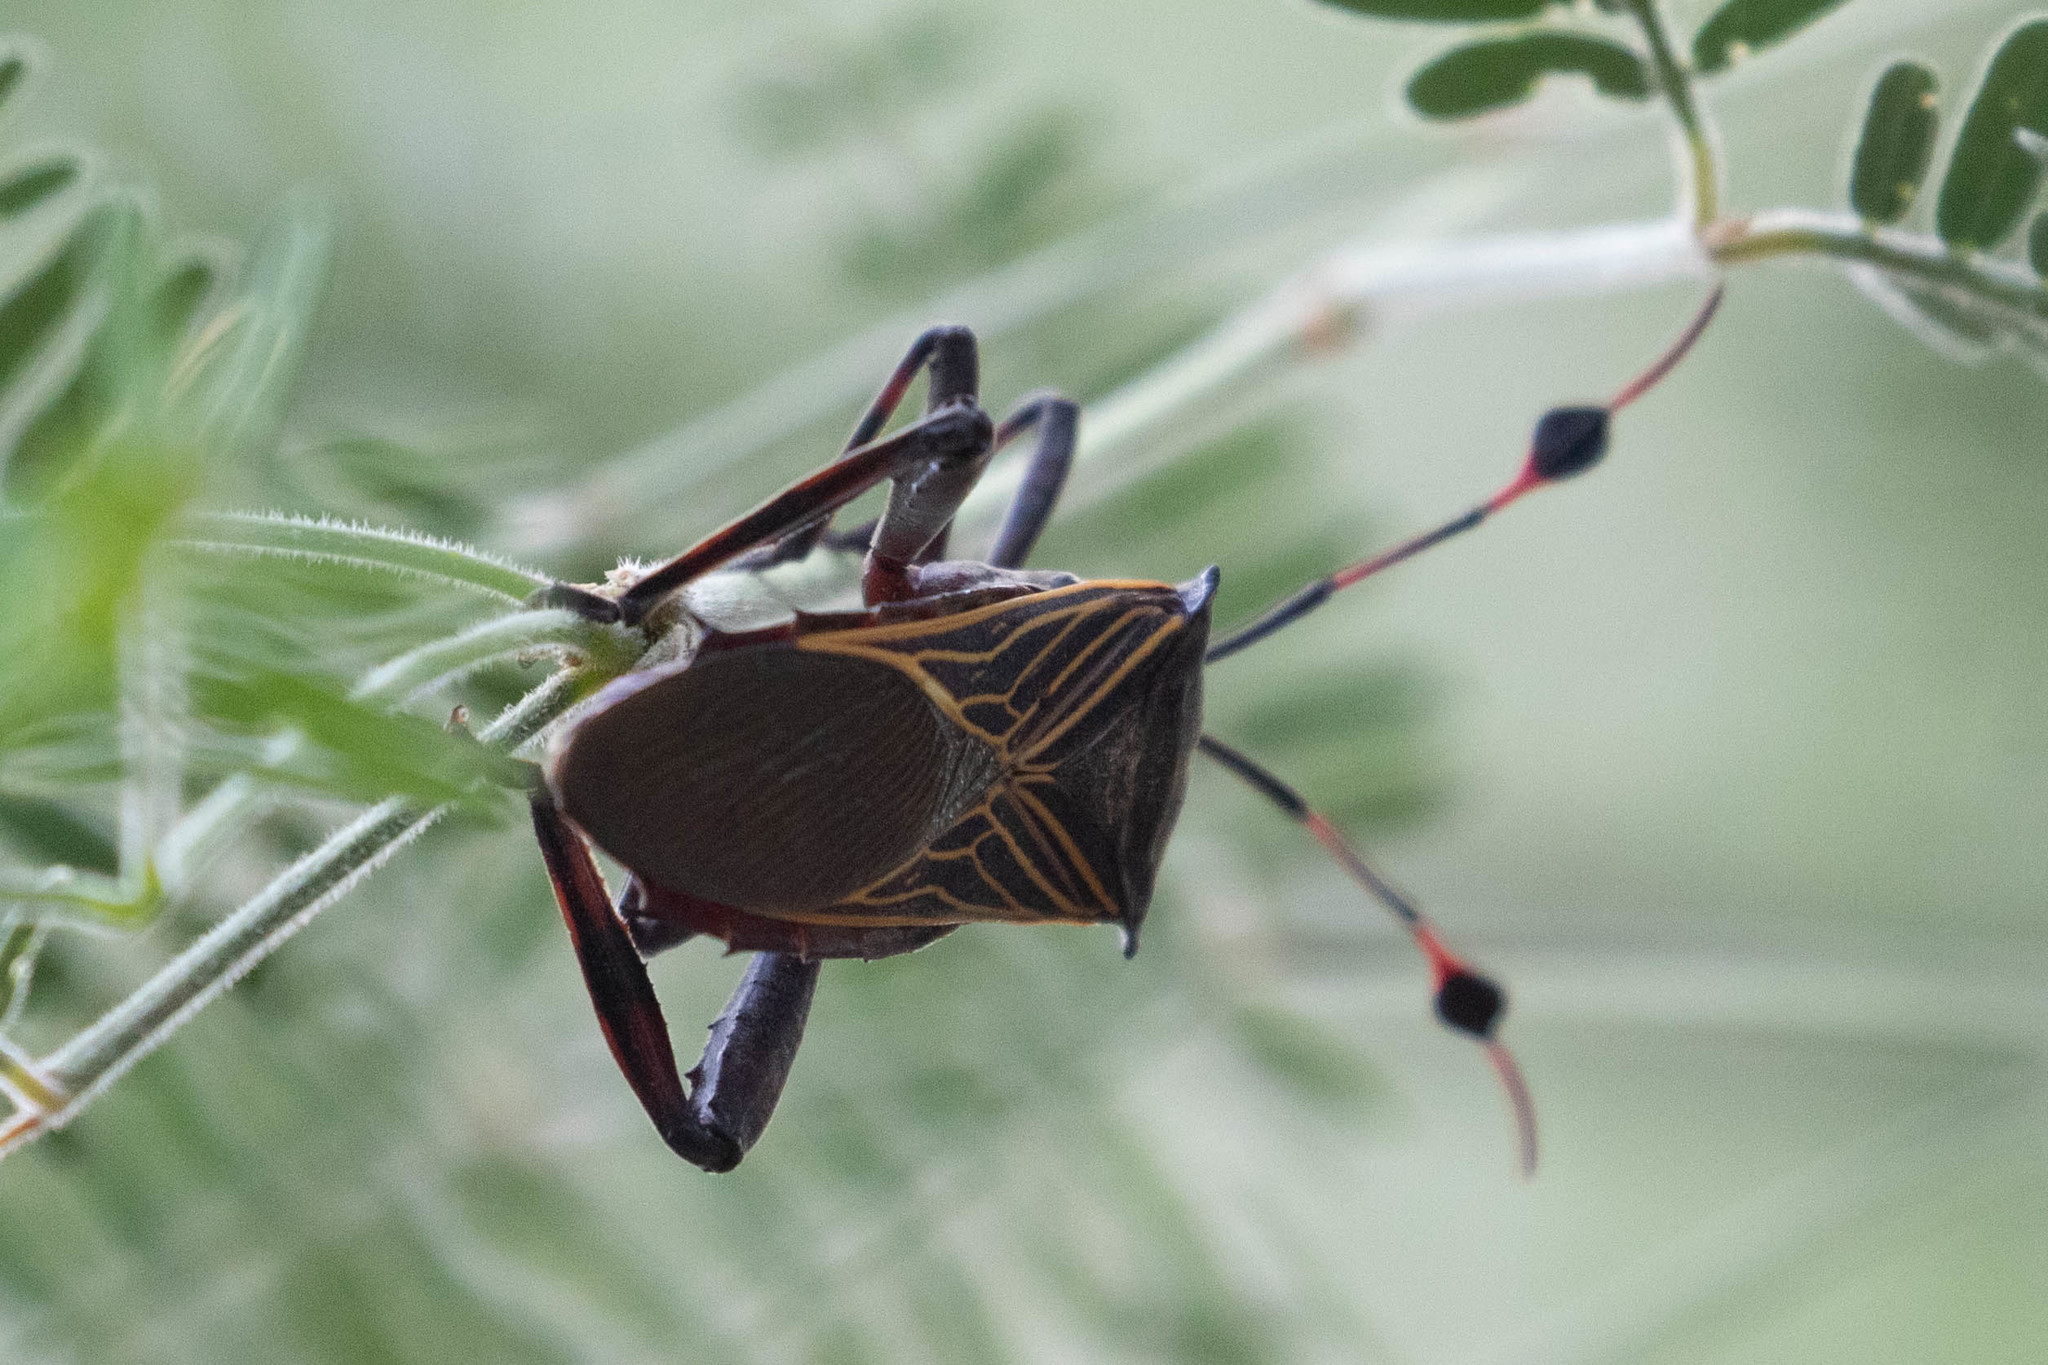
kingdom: Animalia
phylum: Arthropoda
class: Insecta
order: Hemiptera
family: Coreidae
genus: Thasus
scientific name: Thasus neocalifornicus
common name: Giant mesquite bug
